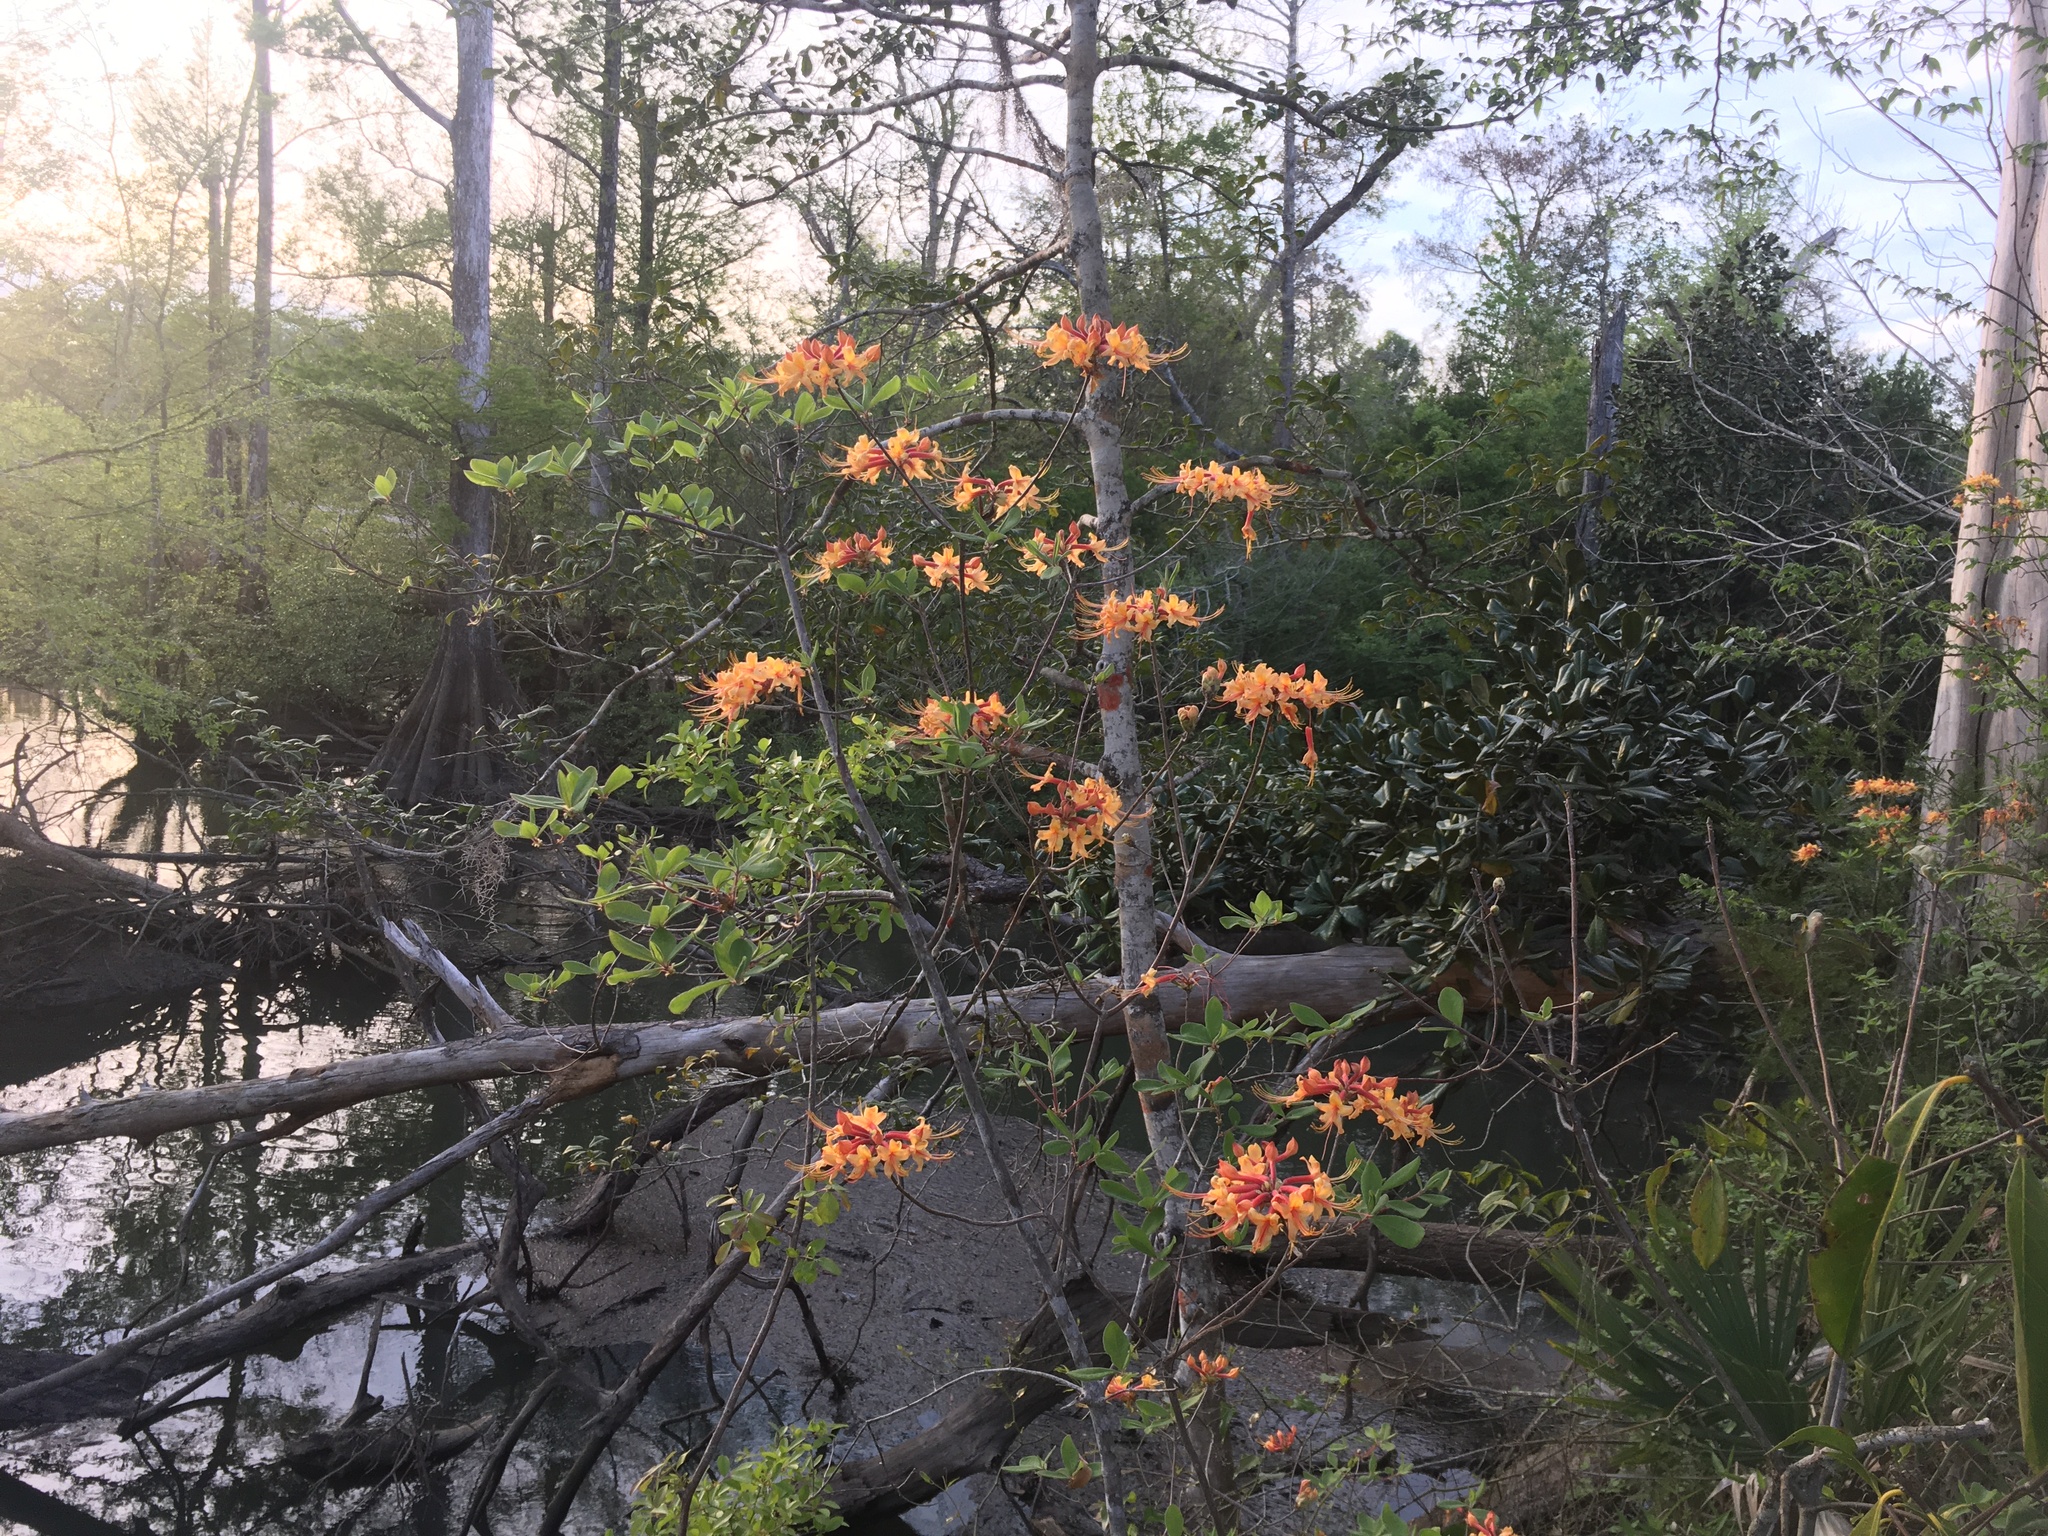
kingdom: Plantae
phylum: Tracheophyta
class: Magnoliopsida
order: Ericales
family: Ericaceae
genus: Rhododendron
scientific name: Rhododendron austrinum
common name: Florida azalea
